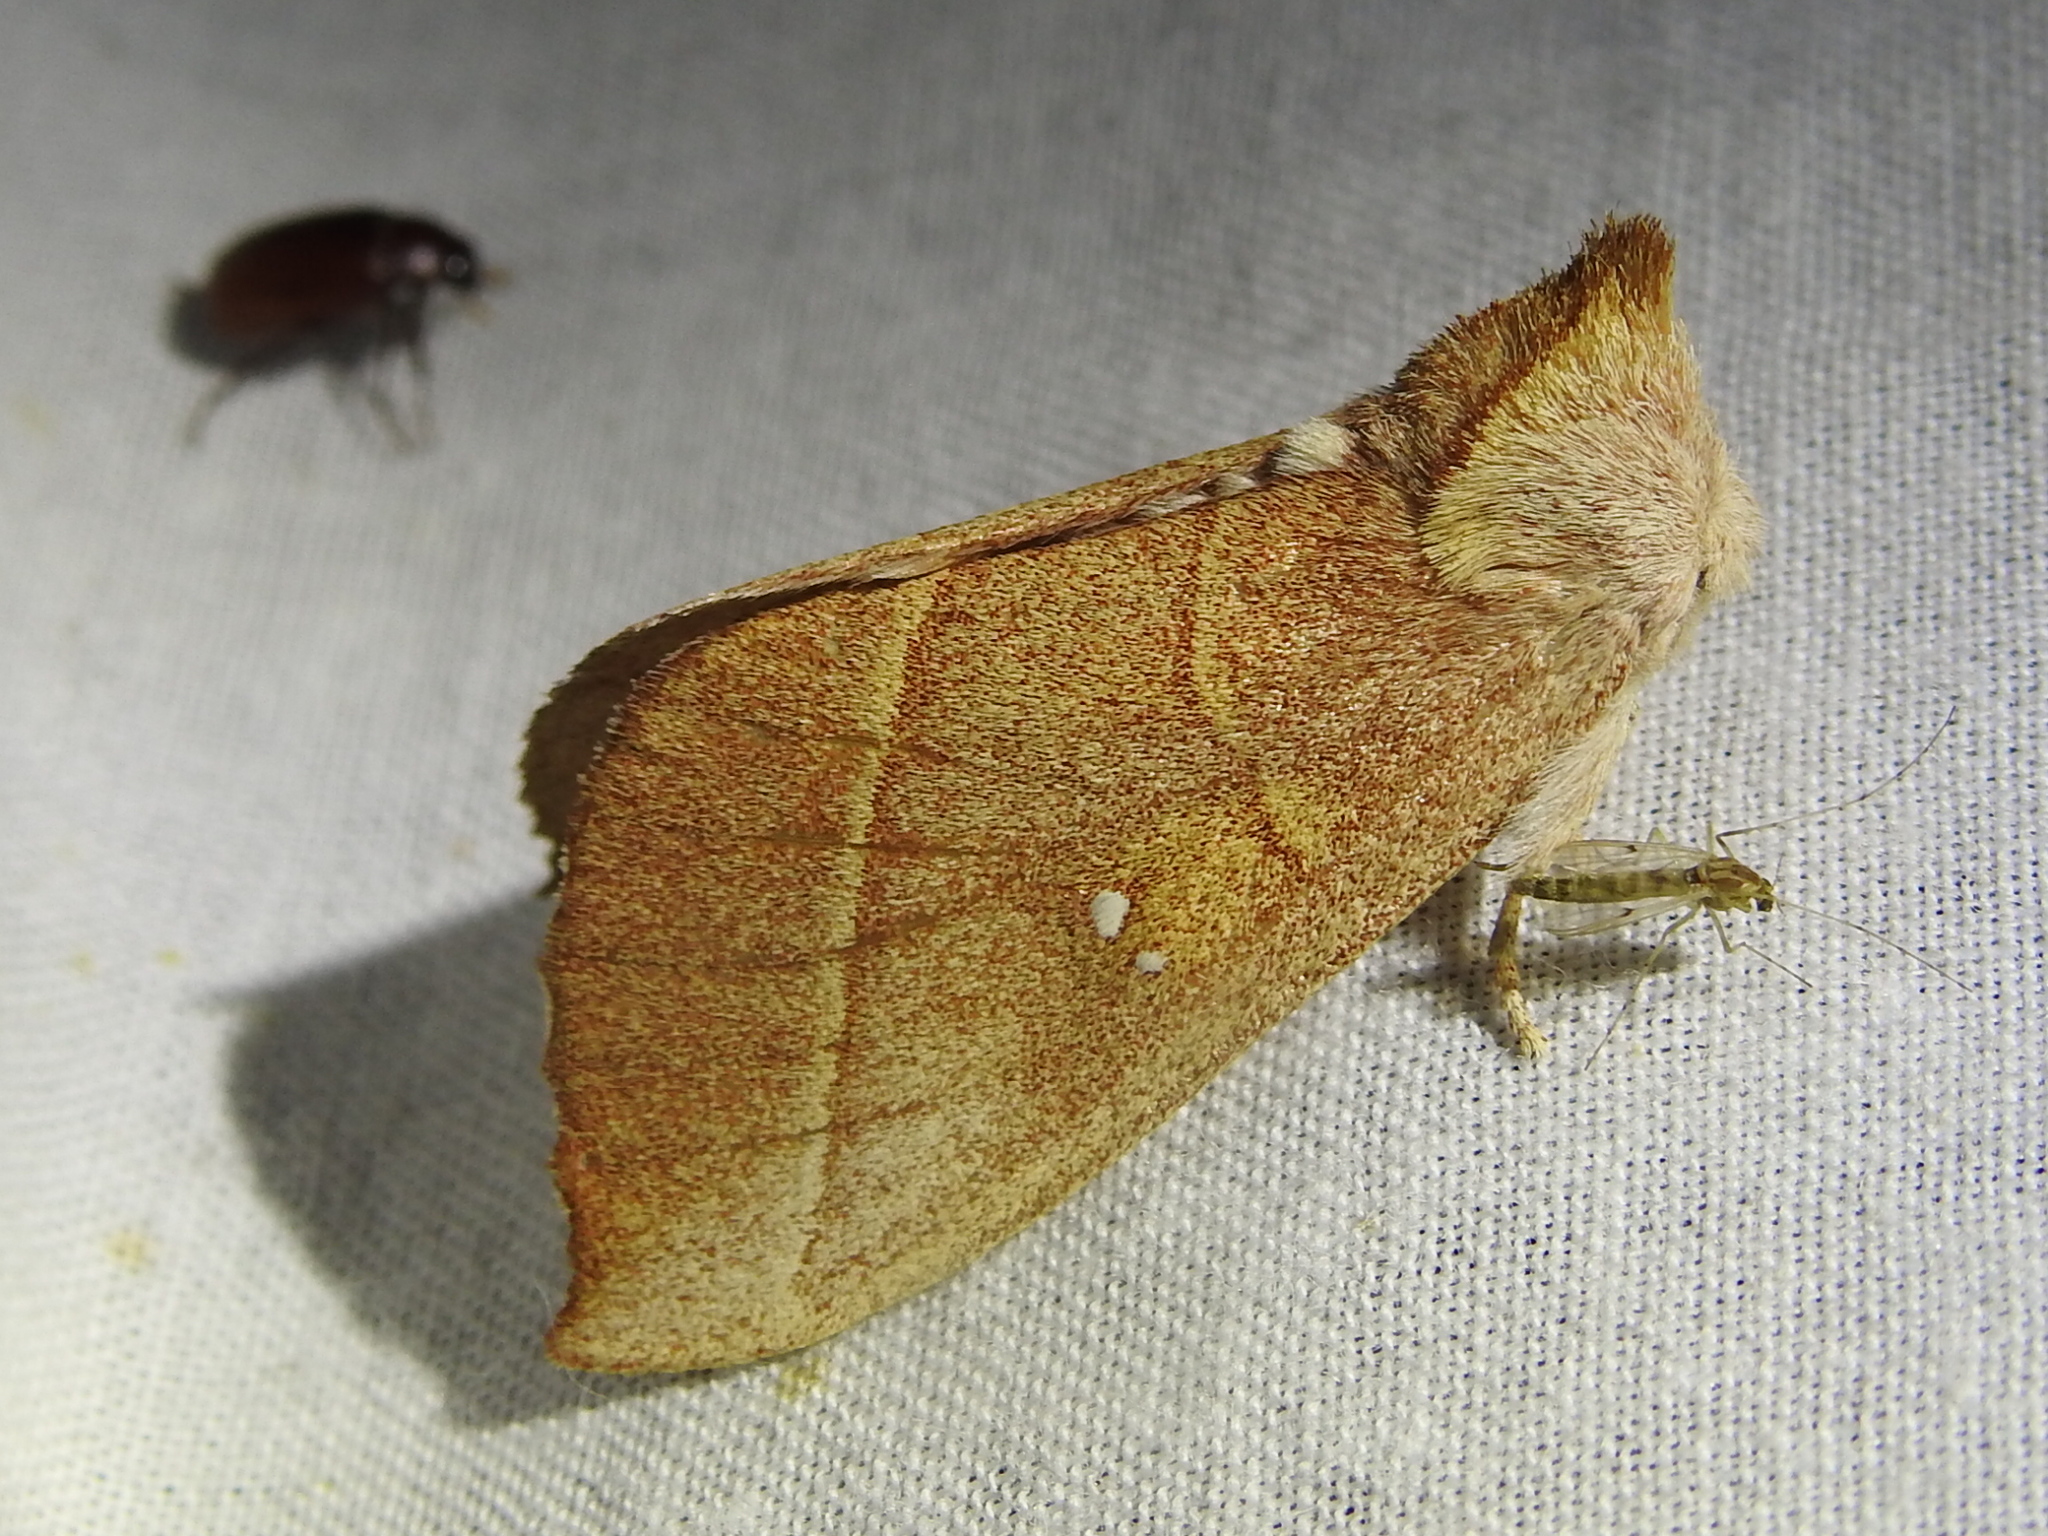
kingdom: Animalia
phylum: Arthropoda
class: Insecta
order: Lepidoptera
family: Notodontidae
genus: Nadata
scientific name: Nadata gibbosa
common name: White-dotted prominent
